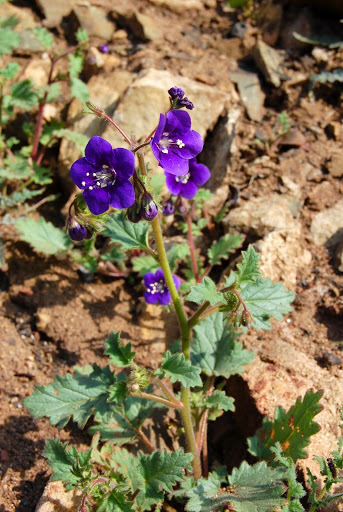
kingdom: Plantae
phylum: Tracheophyta
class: Magnoliopsida
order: Boraginales
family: Hydrophyllaceae
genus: Phacelia
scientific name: Phacelia parryi
